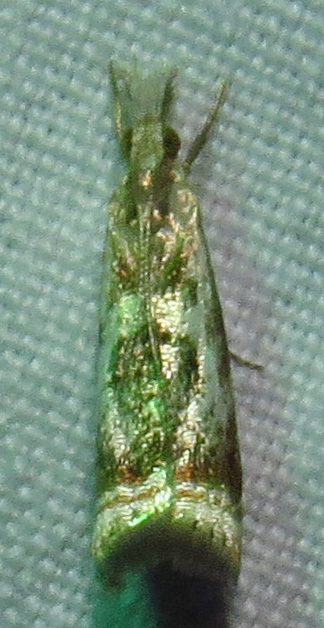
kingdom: Animalia
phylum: Arthropoda
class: Insecta
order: Lepidoptera
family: Crambidae
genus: Microcrambus
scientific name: Microcrambus elegans
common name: Elegant grass-veneer
